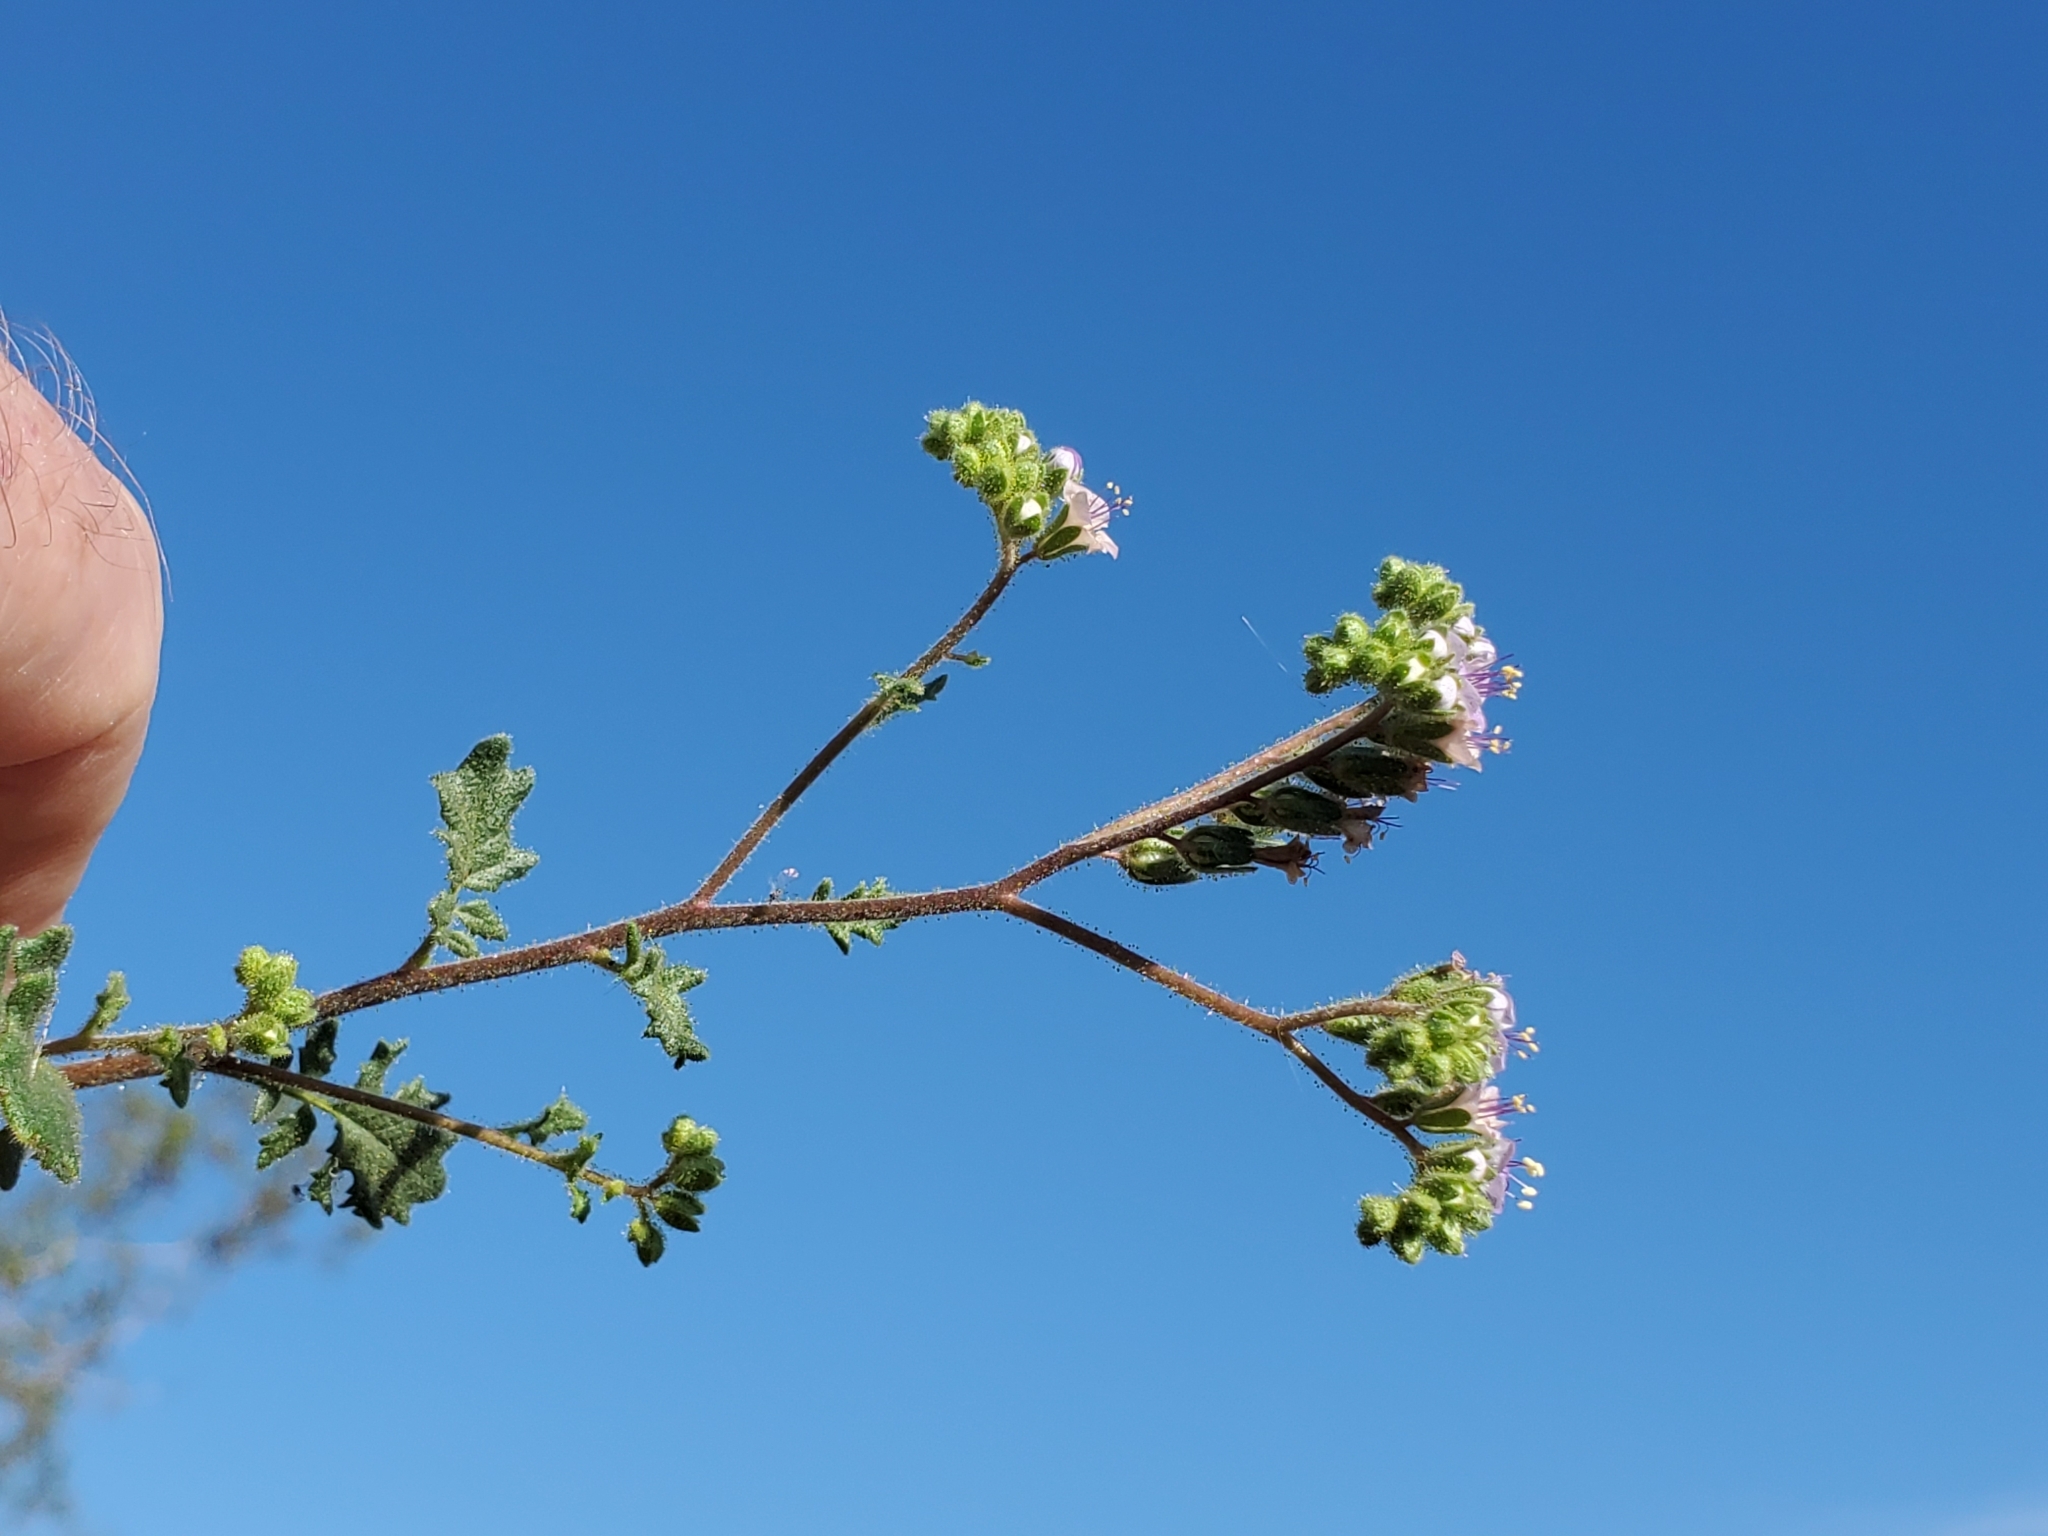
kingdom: Plantae
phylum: Tracheophyta
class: Magnoliopsida
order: Boraginales
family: Hydrophyllaceae
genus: Phacelia
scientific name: Phacelia minutiflora
